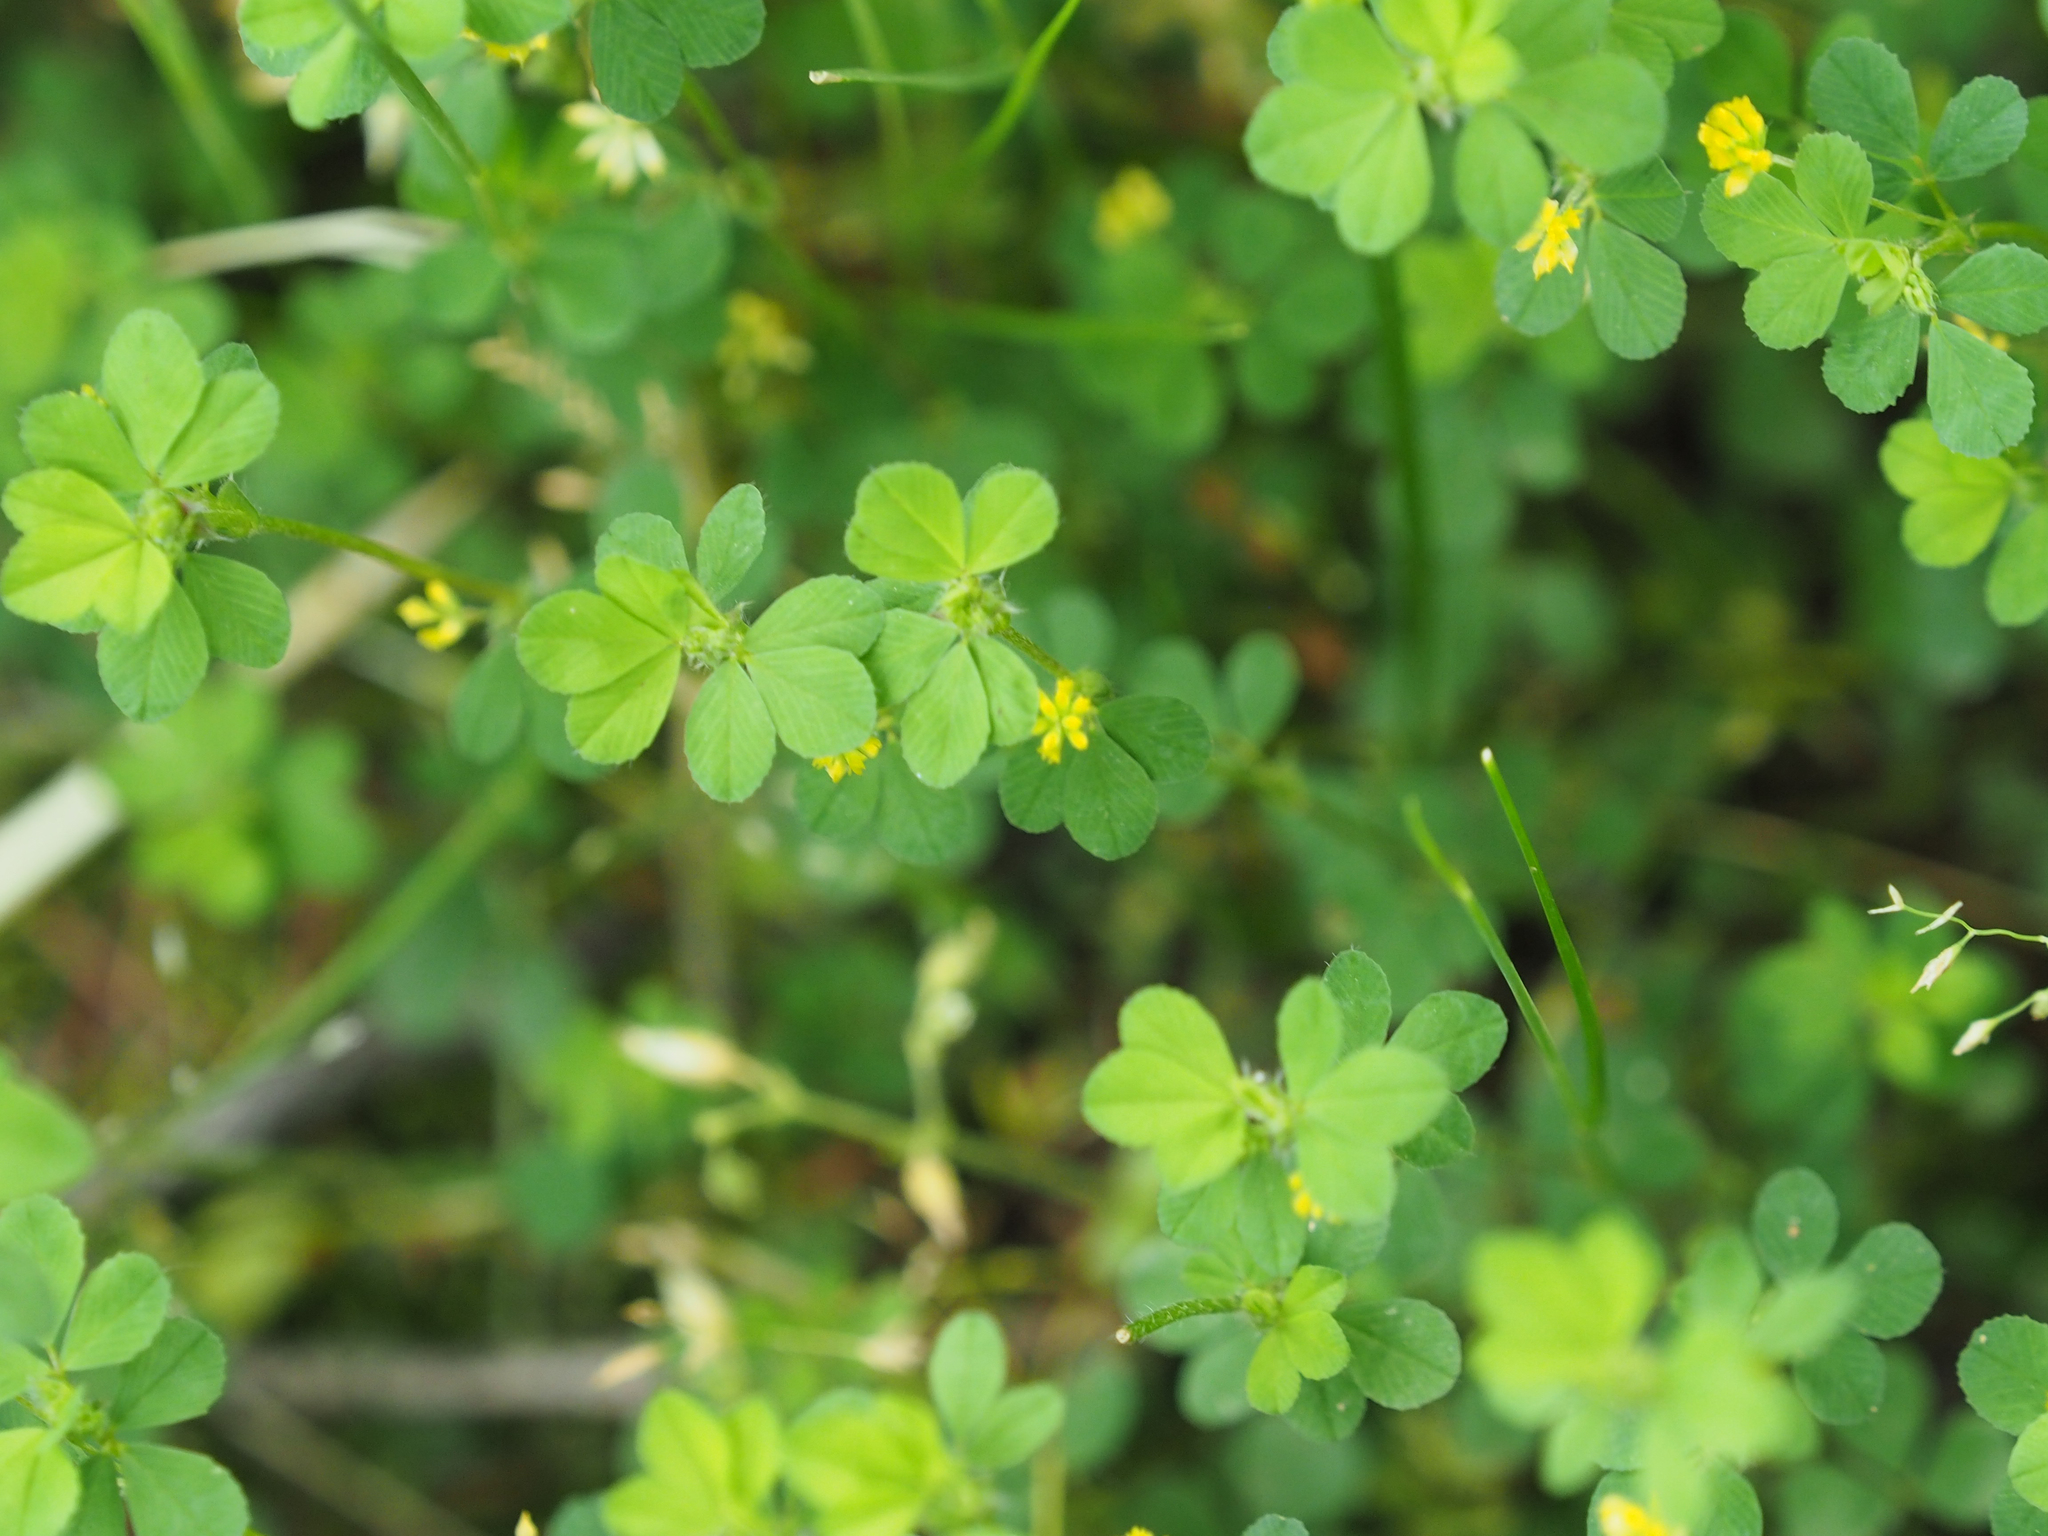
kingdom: Plantae
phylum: Tracheophyta
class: Magnoliopsida
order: Fabales
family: Fabaceae
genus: Trifolium
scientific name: Trifolium dubium
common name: Suckling clover
